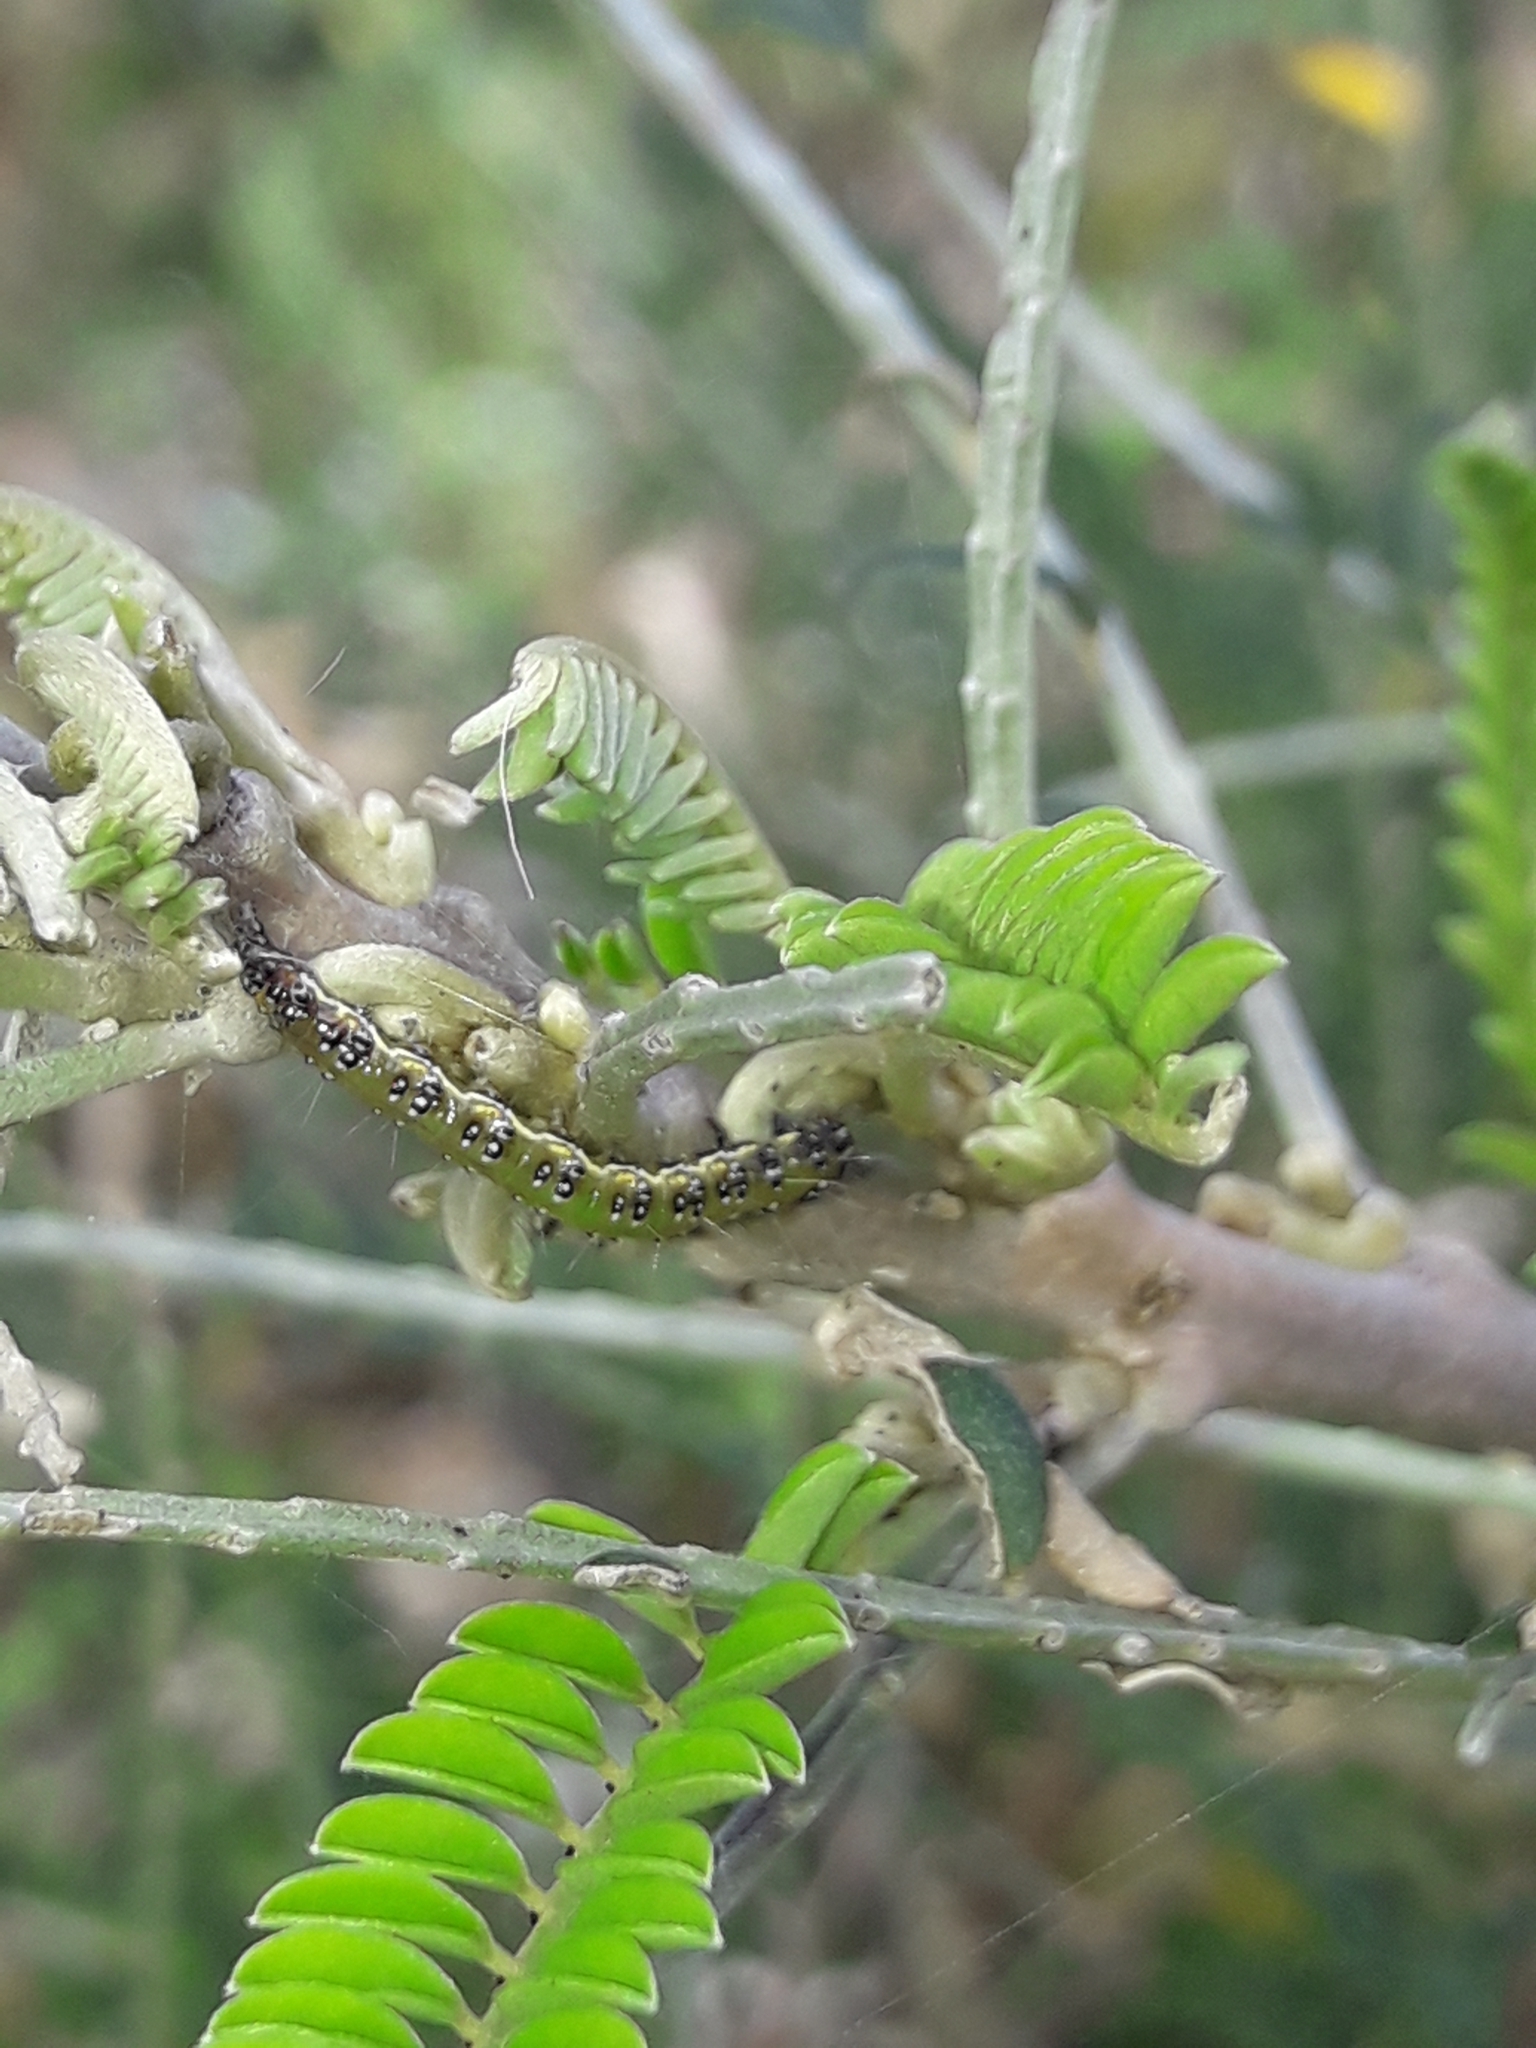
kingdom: Animalia
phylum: Arthropoda
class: Insecta
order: Lepidoptera
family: Crambidae
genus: Uresiphita
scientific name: Uresiphita
